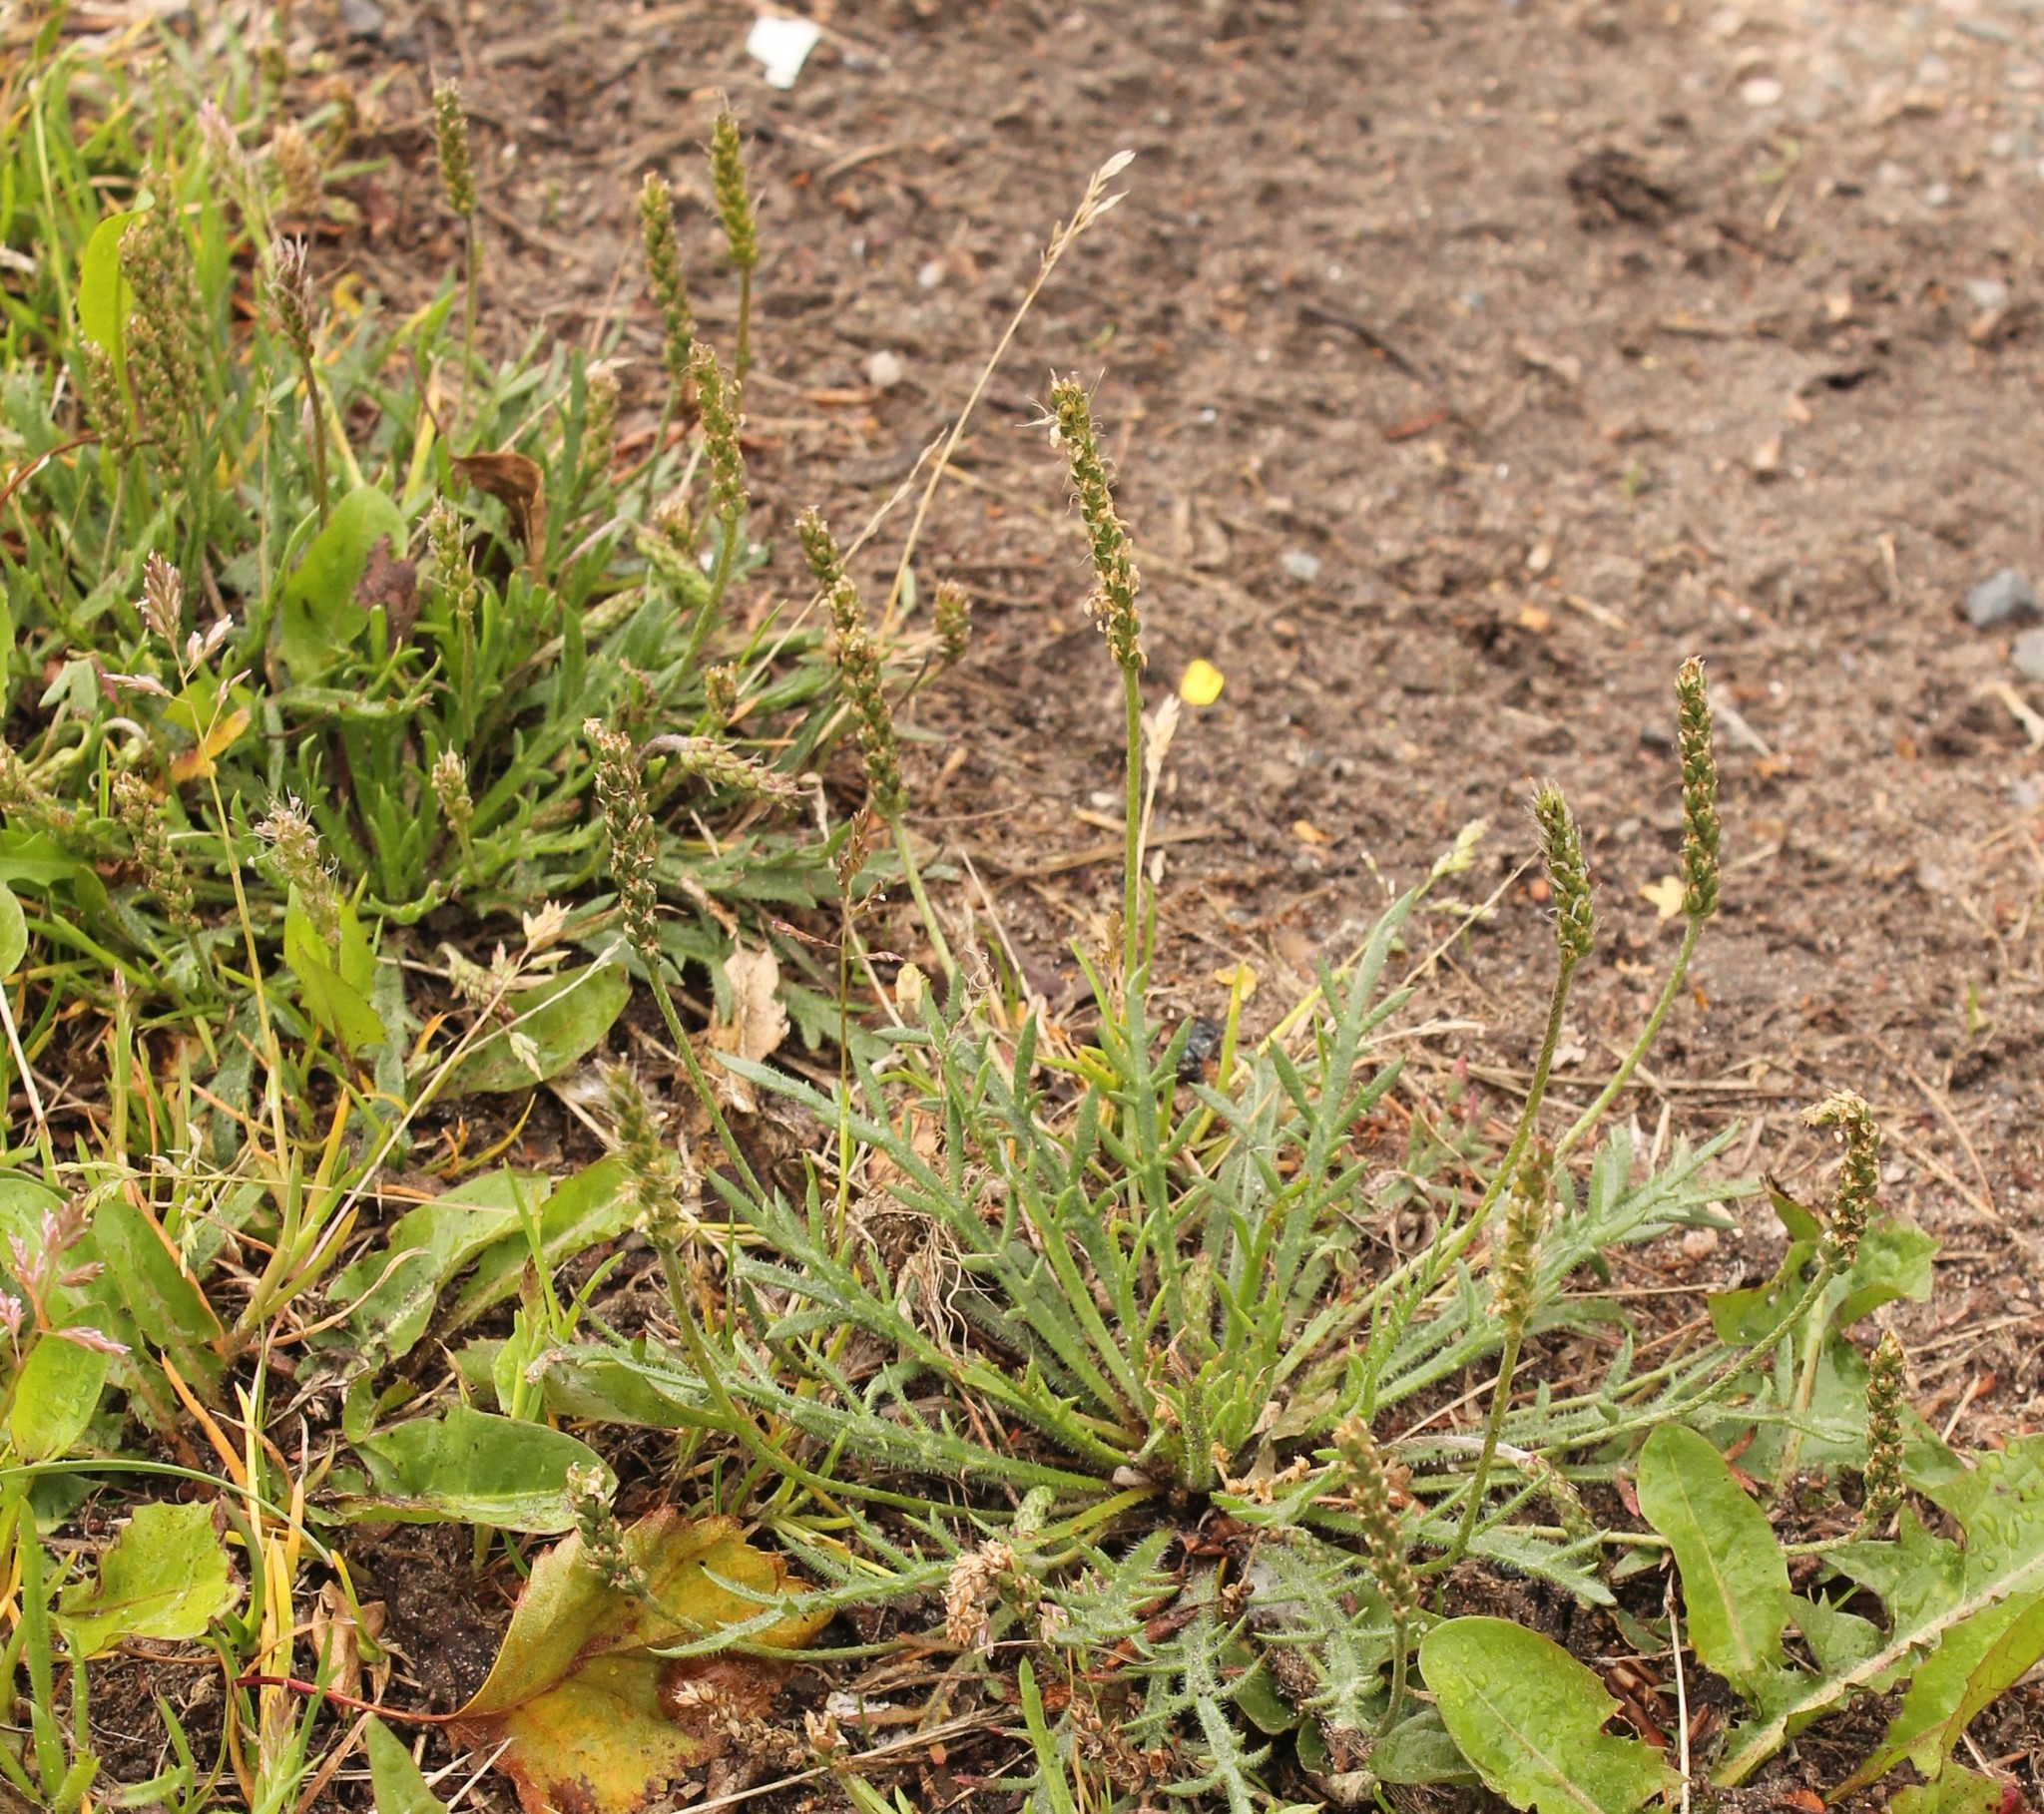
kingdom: Plantae
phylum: Tracheophyta
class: Magnoliopsida
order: Lamiales
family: Plantaginaceae
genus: Plantago
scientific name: Plantago coronopus
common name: Buck's-horn plantain
